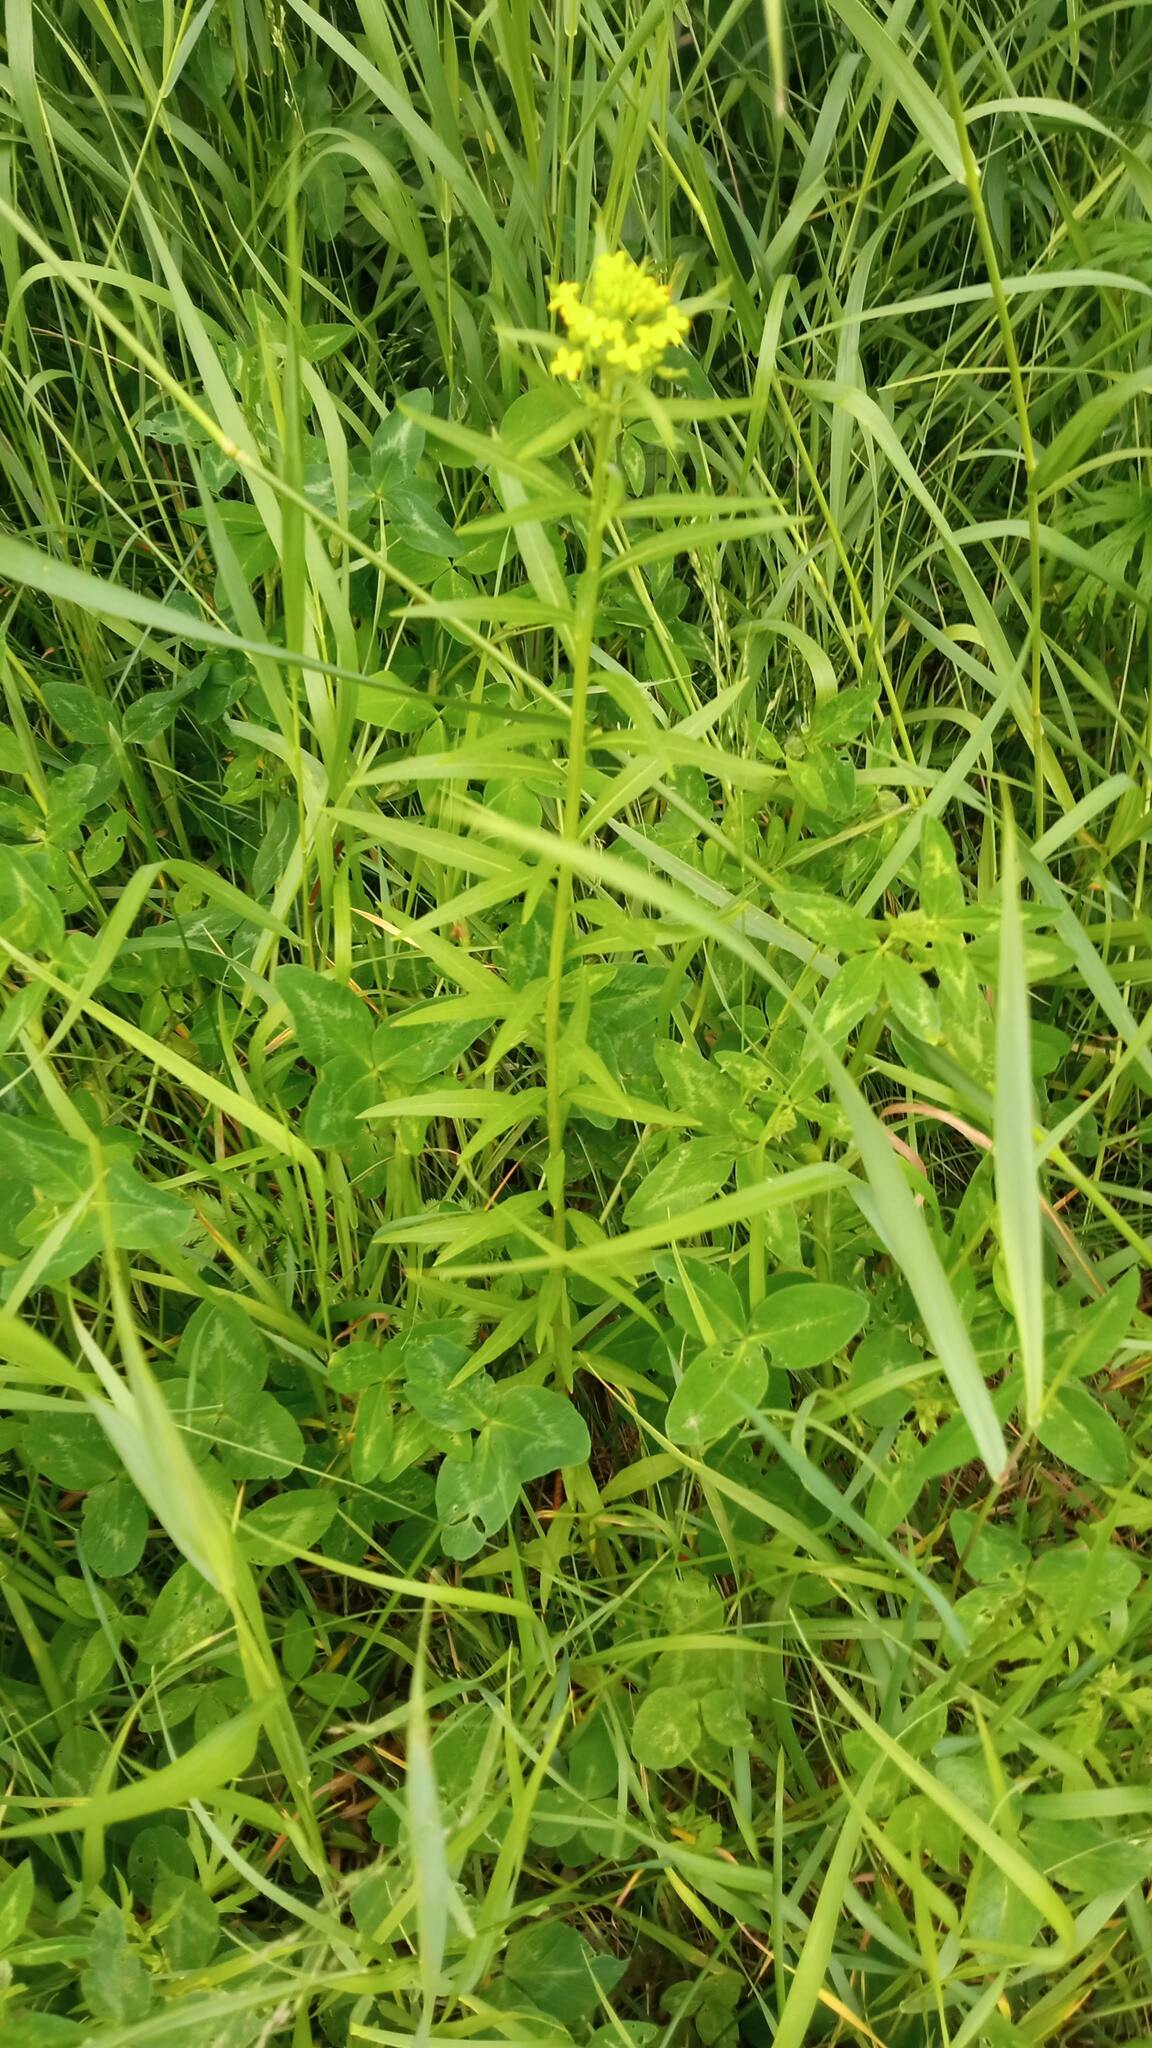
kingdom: Plantae
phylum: Tracheophyta
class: Magnoliopsida
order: Brassicales
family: Brassicaceae
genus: Erysimum
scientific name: Erysimum cheiranthoides
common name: Treacle mustard
